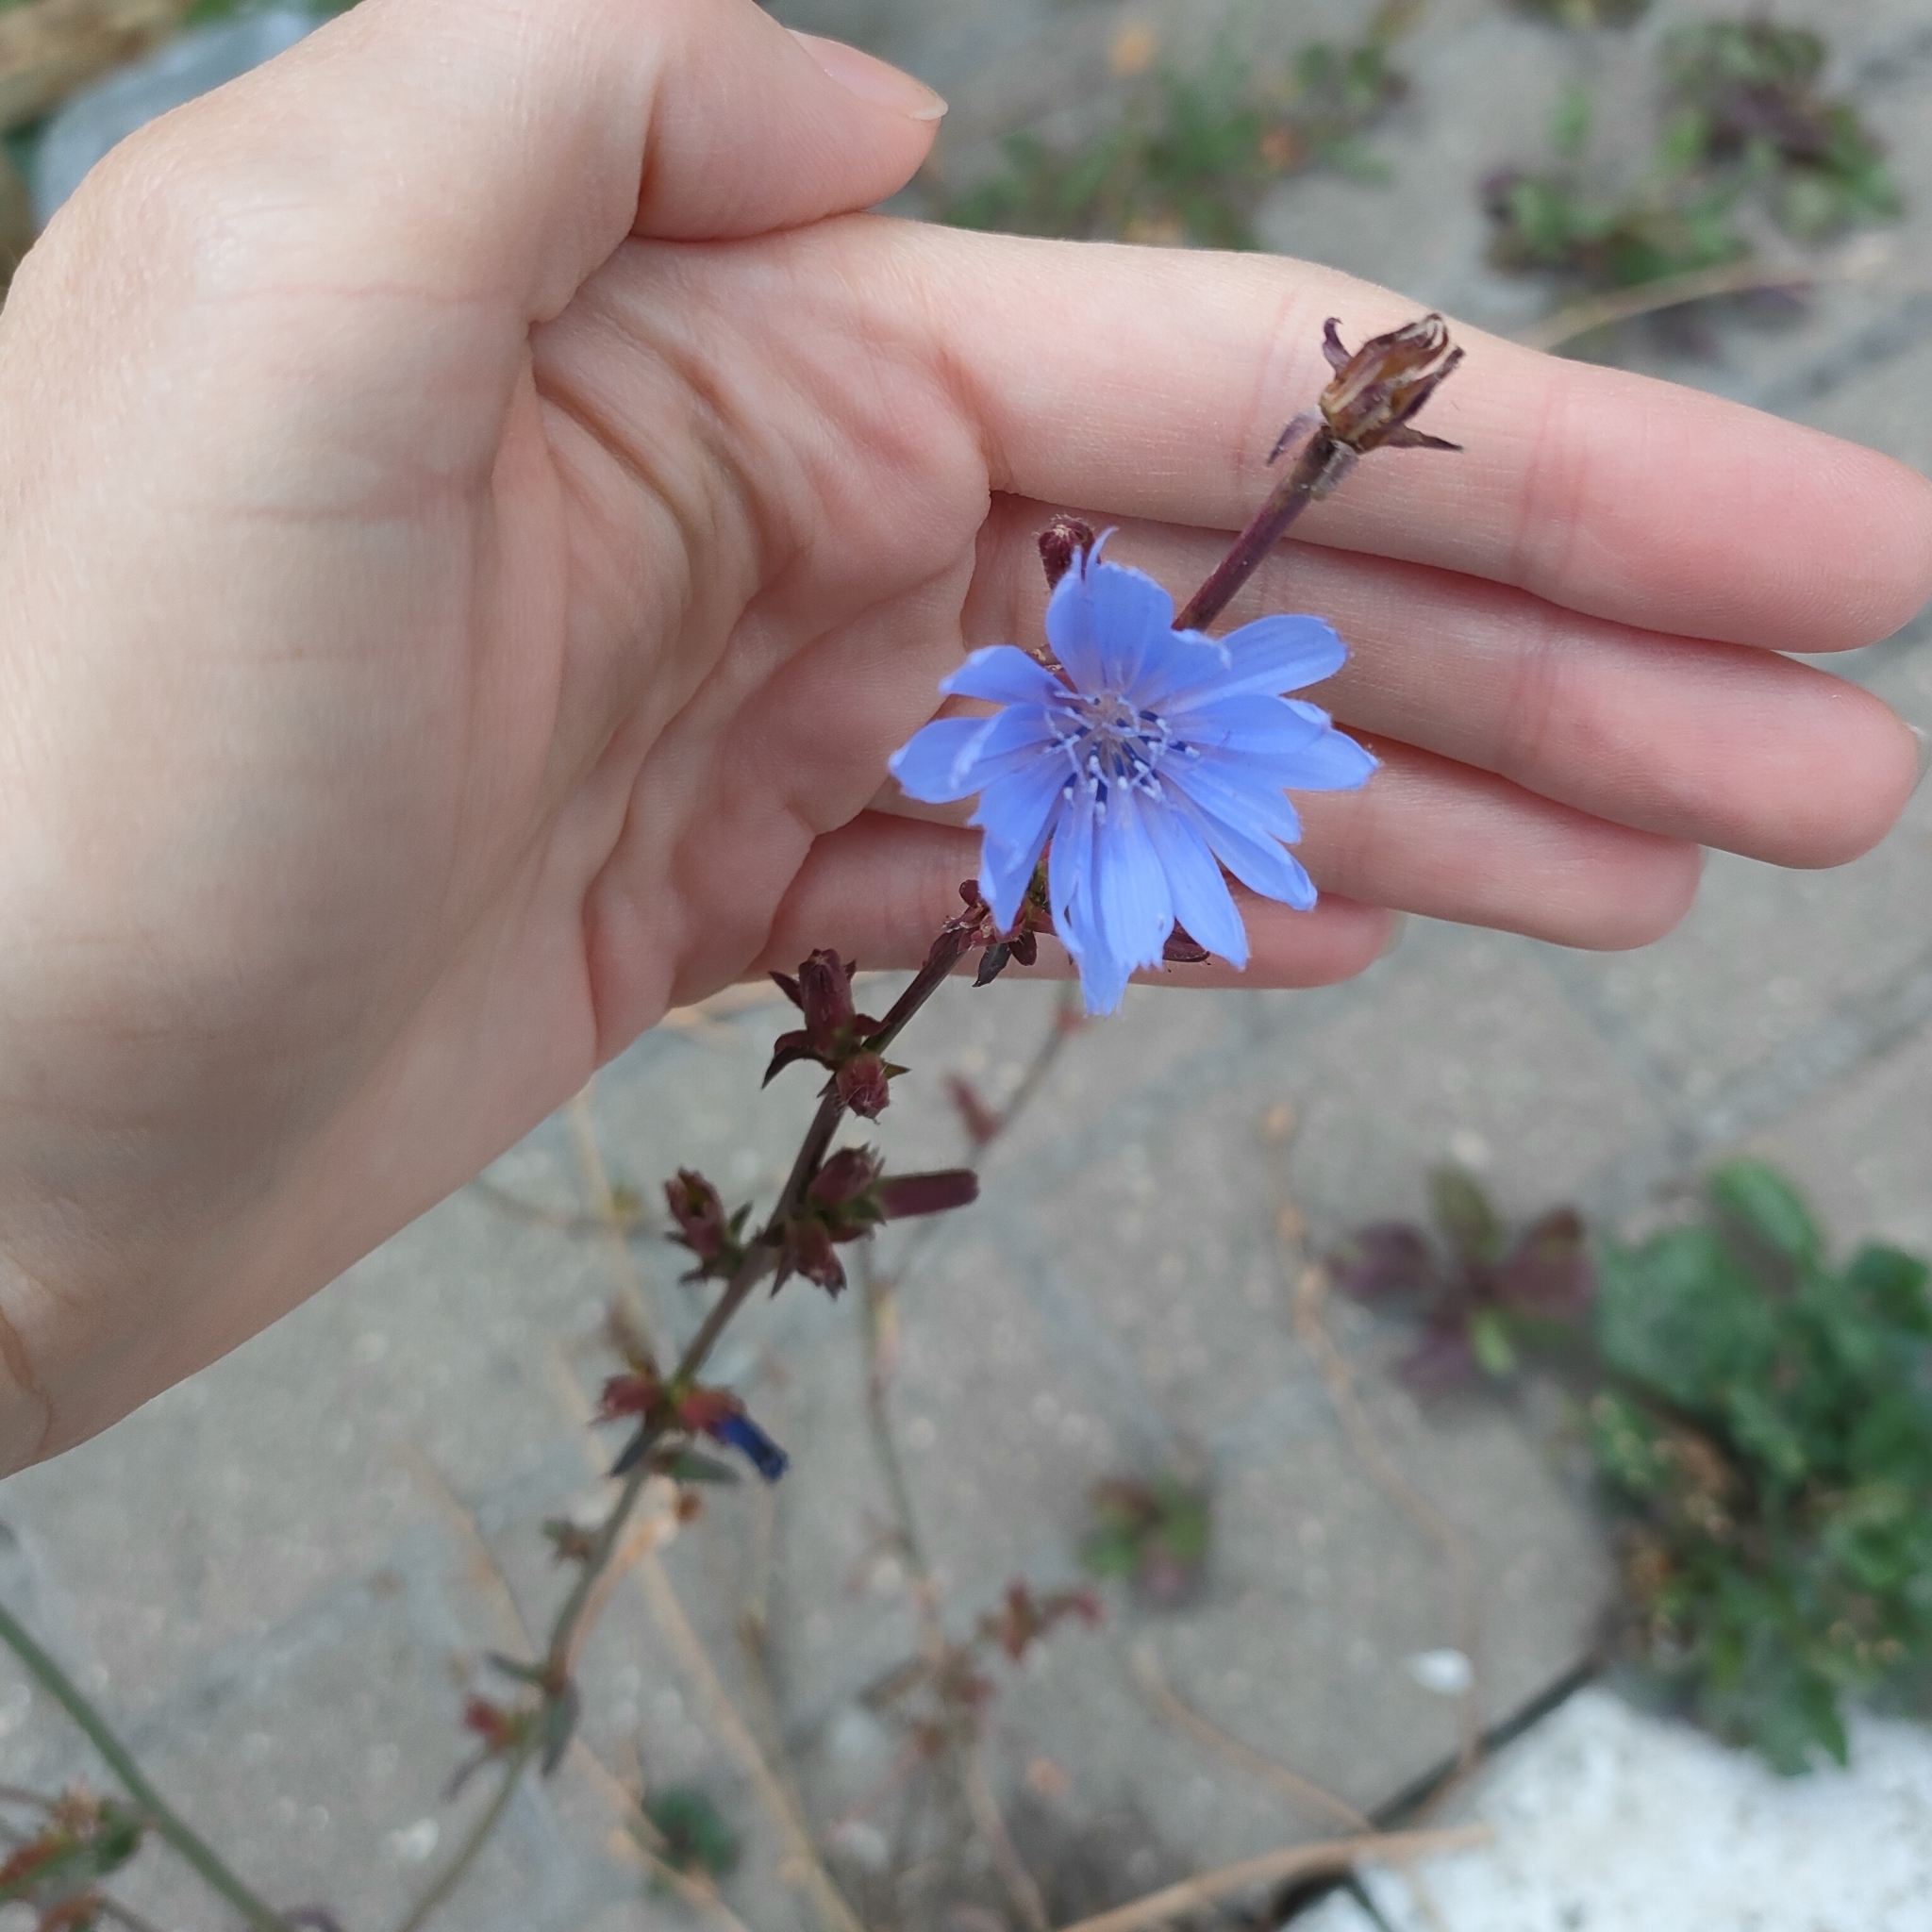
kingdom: Plantae
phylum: Tracheophyta
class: Magnoliopsida
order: Asterales
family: Asteraceae
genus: Cichorium
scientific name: Cichorium intybus
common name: Chicory
